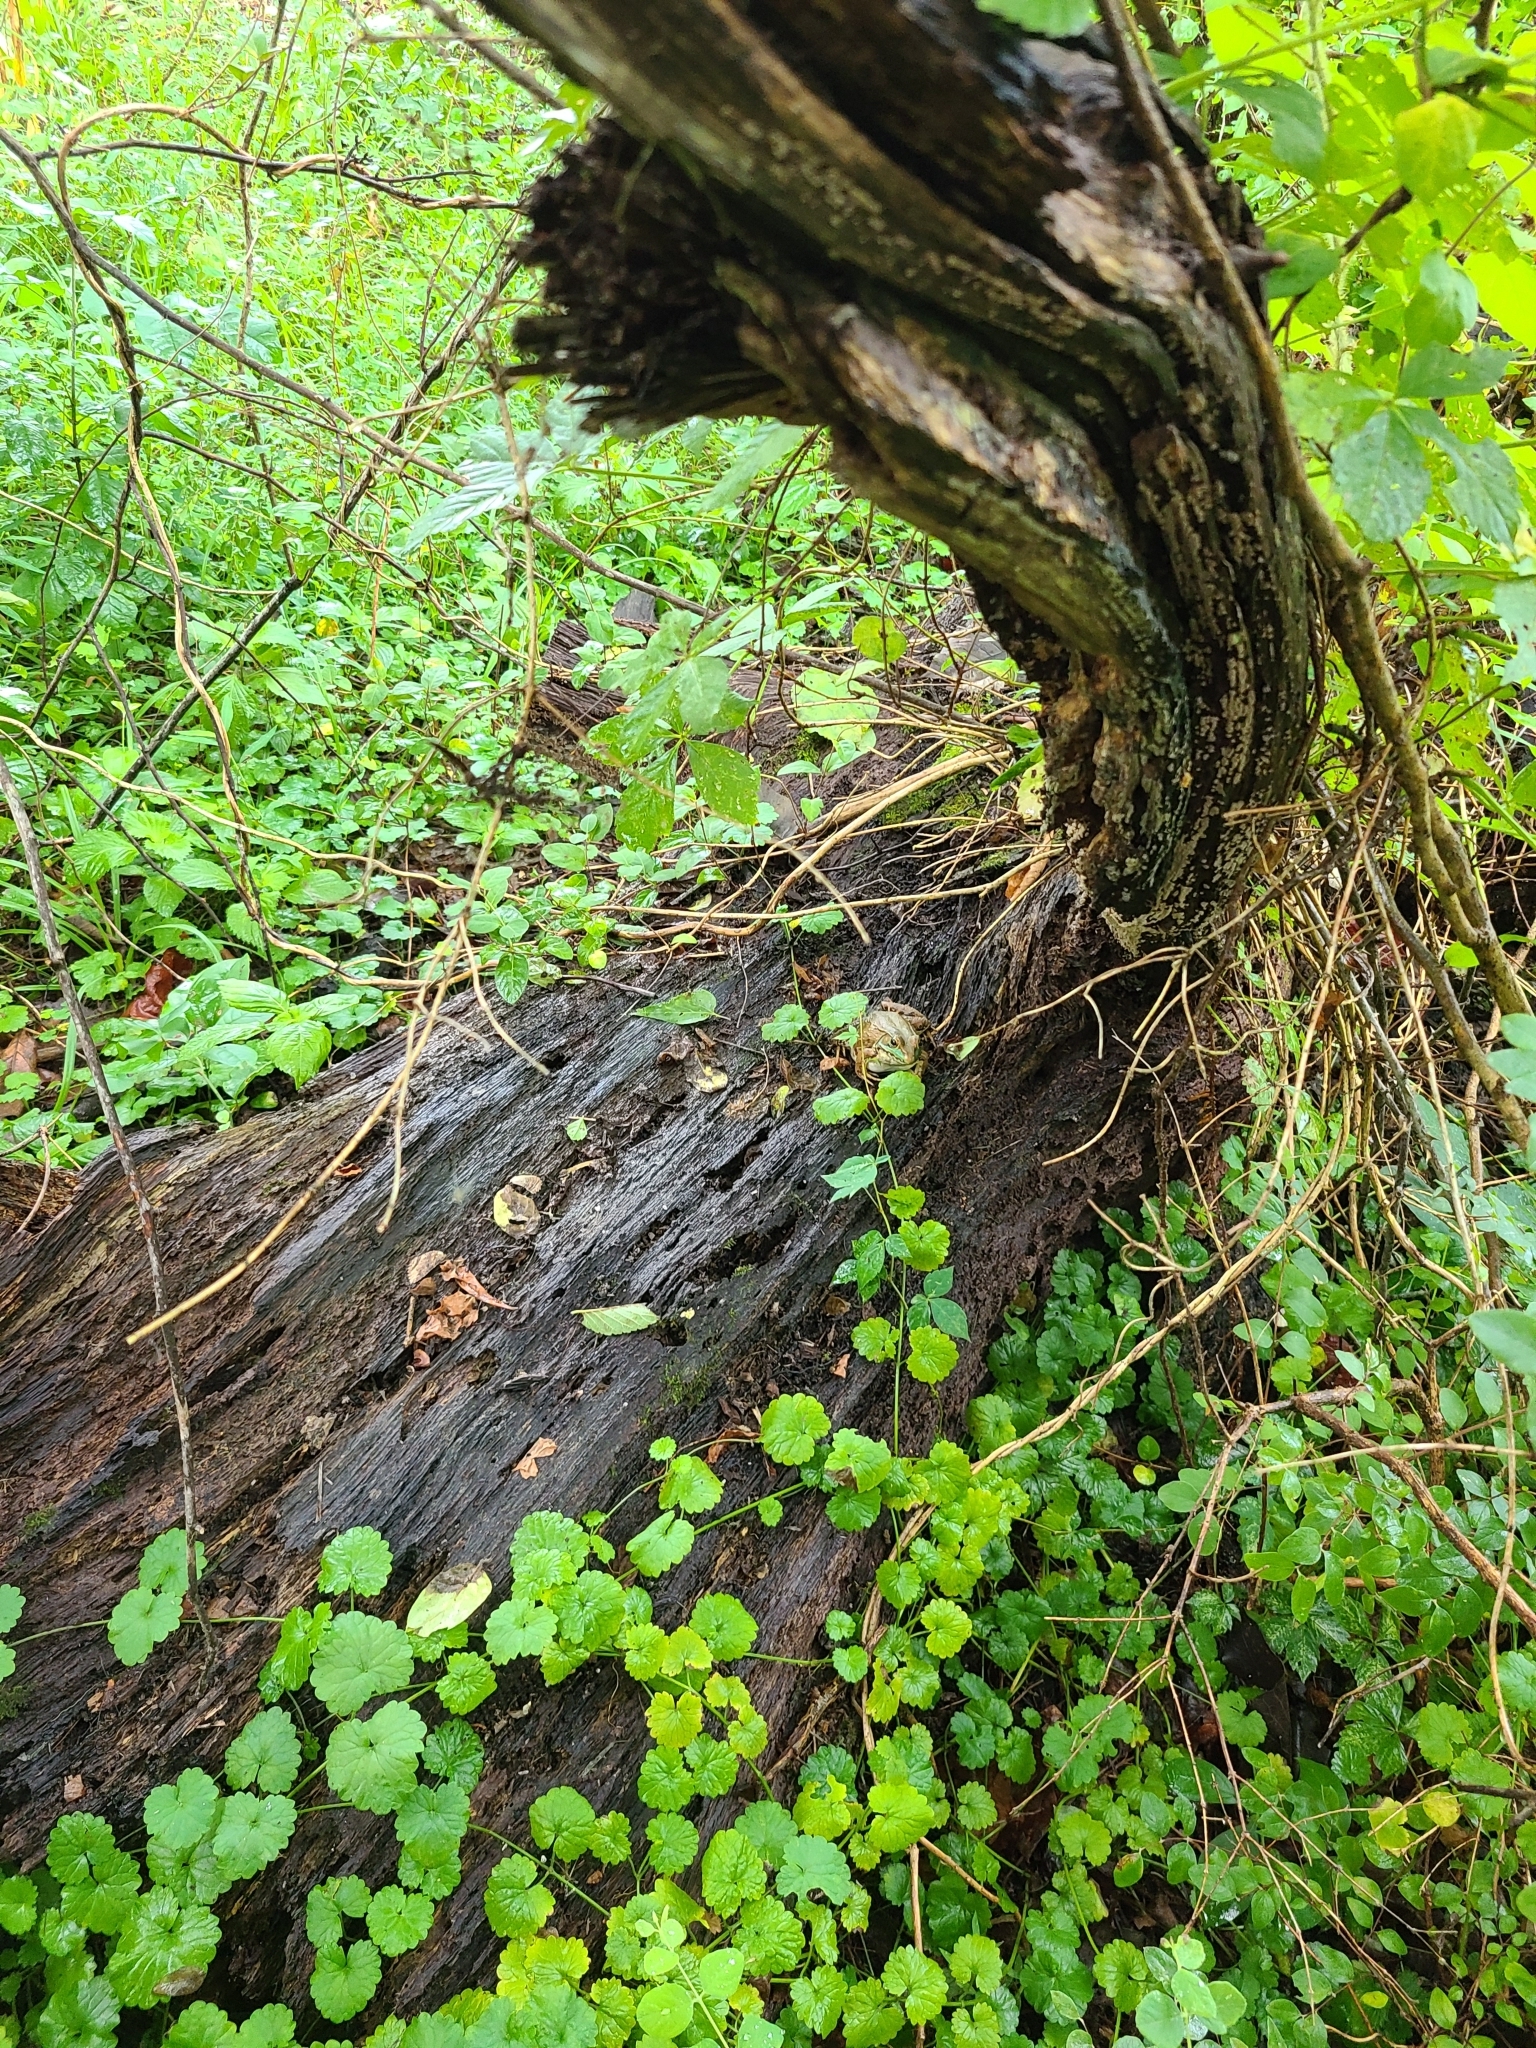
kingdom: Animalia
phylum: Chordata
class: Amphibia
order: Anura
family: Ranidae
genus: Lithobates
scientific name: Lithobates clamitans
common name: Green frog
